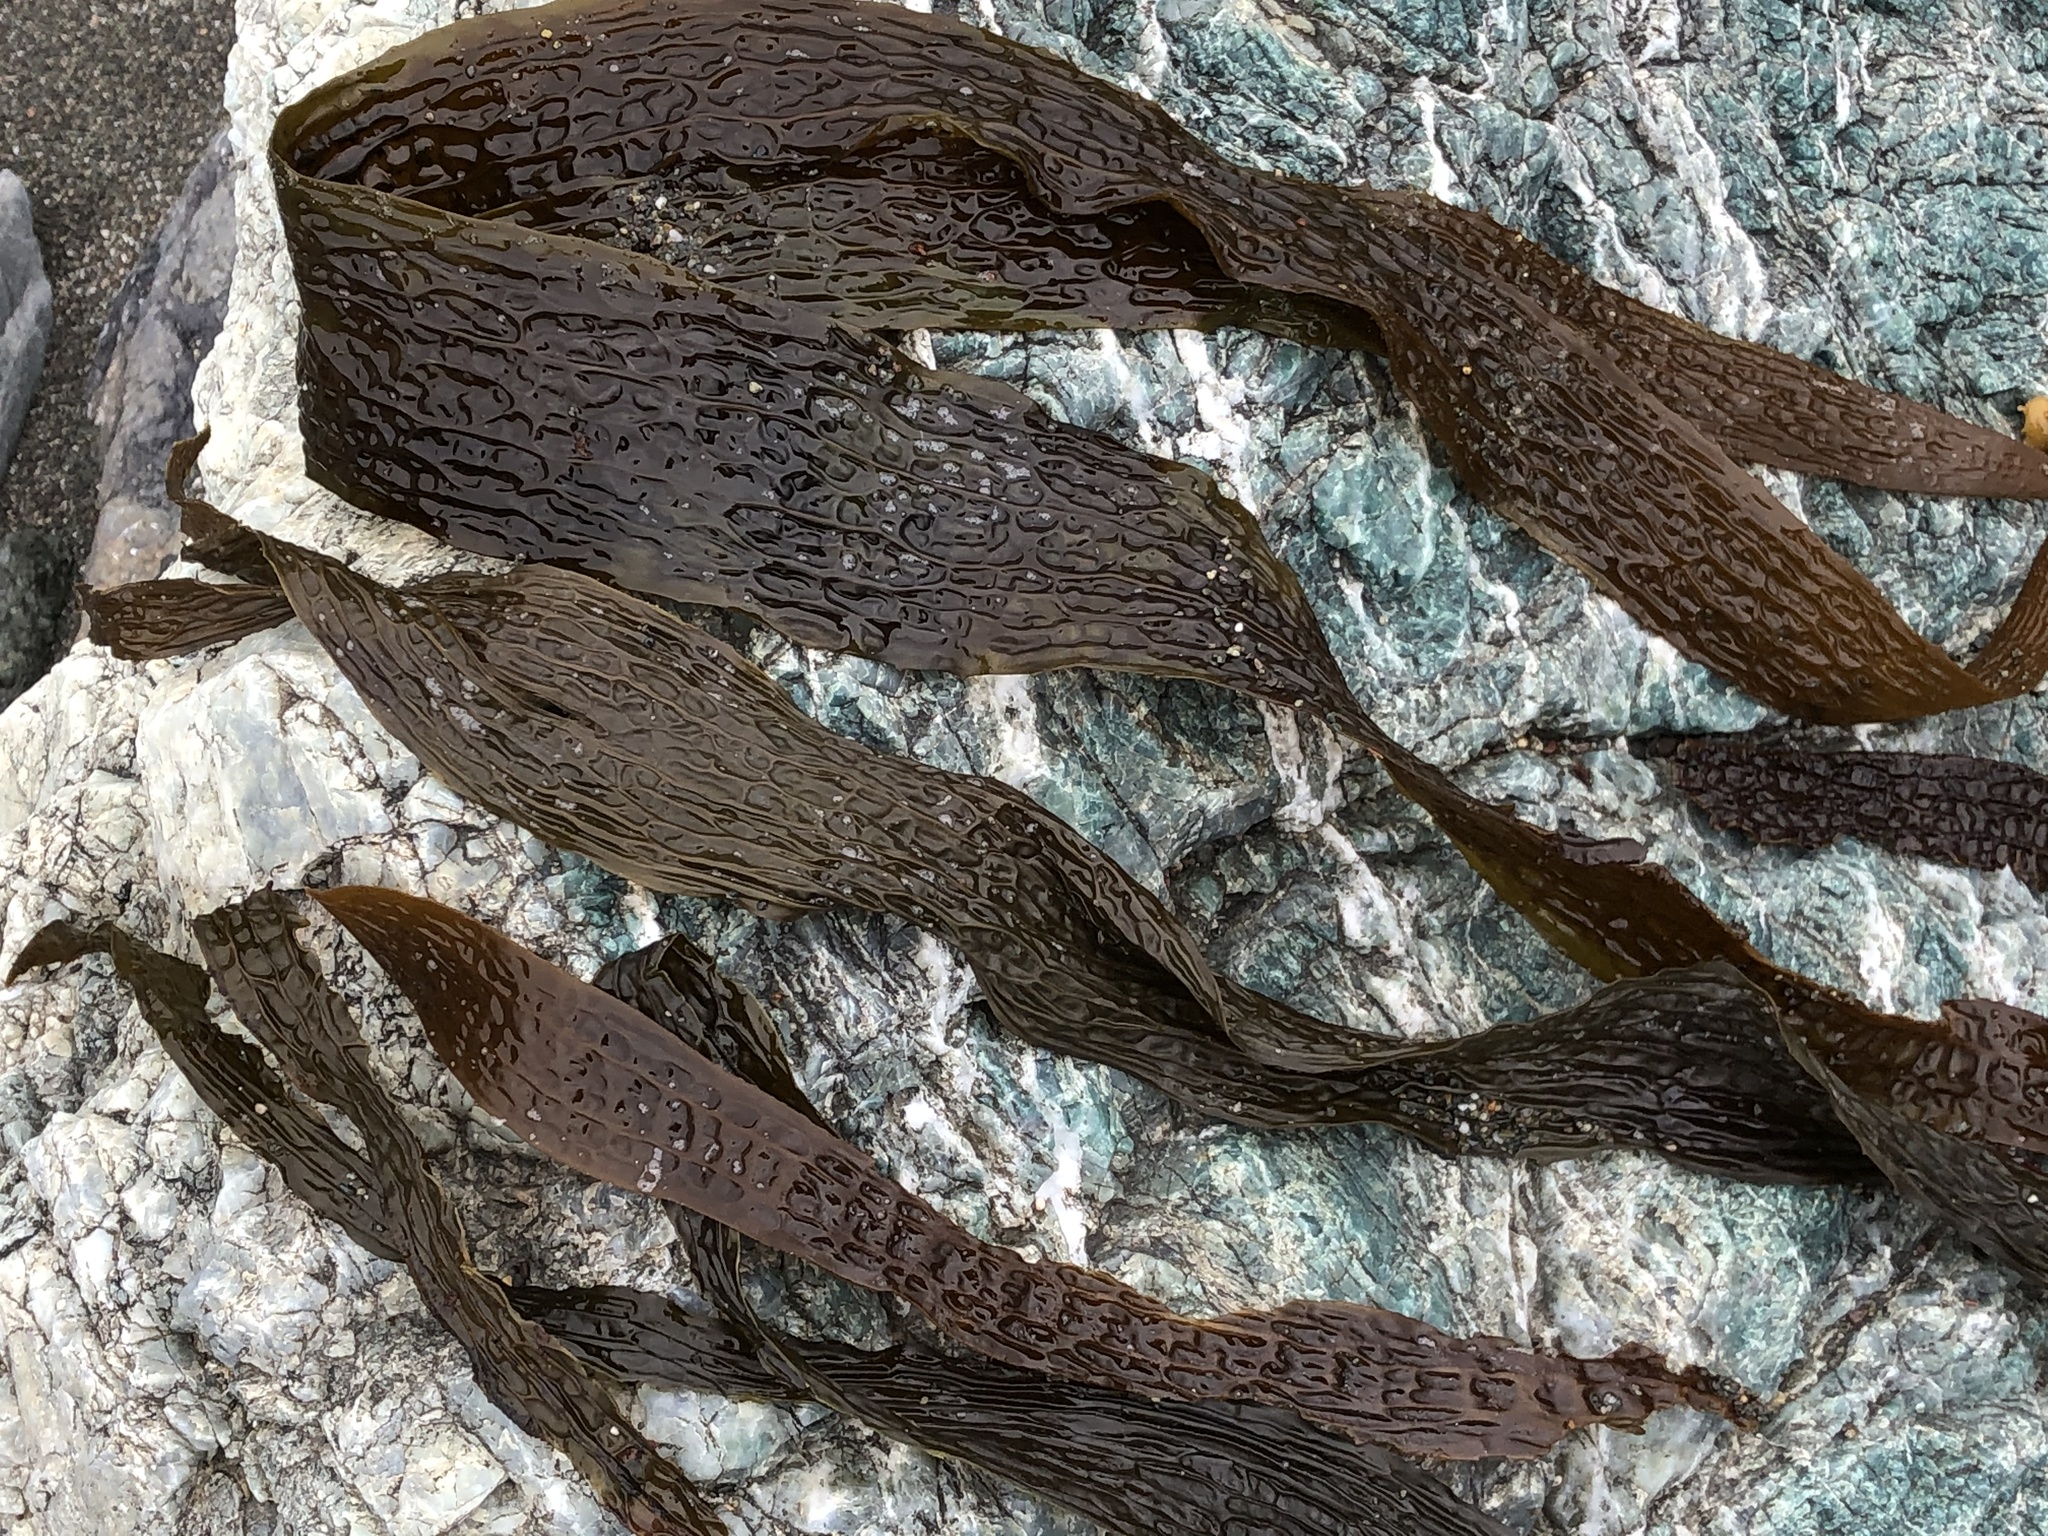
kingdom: Chromista
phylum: Ochrophyta
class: Phaeophyceae
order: Laminariales
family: Costariaceae
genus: Dictyoneurum
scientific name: Dictyoneurum californicum
